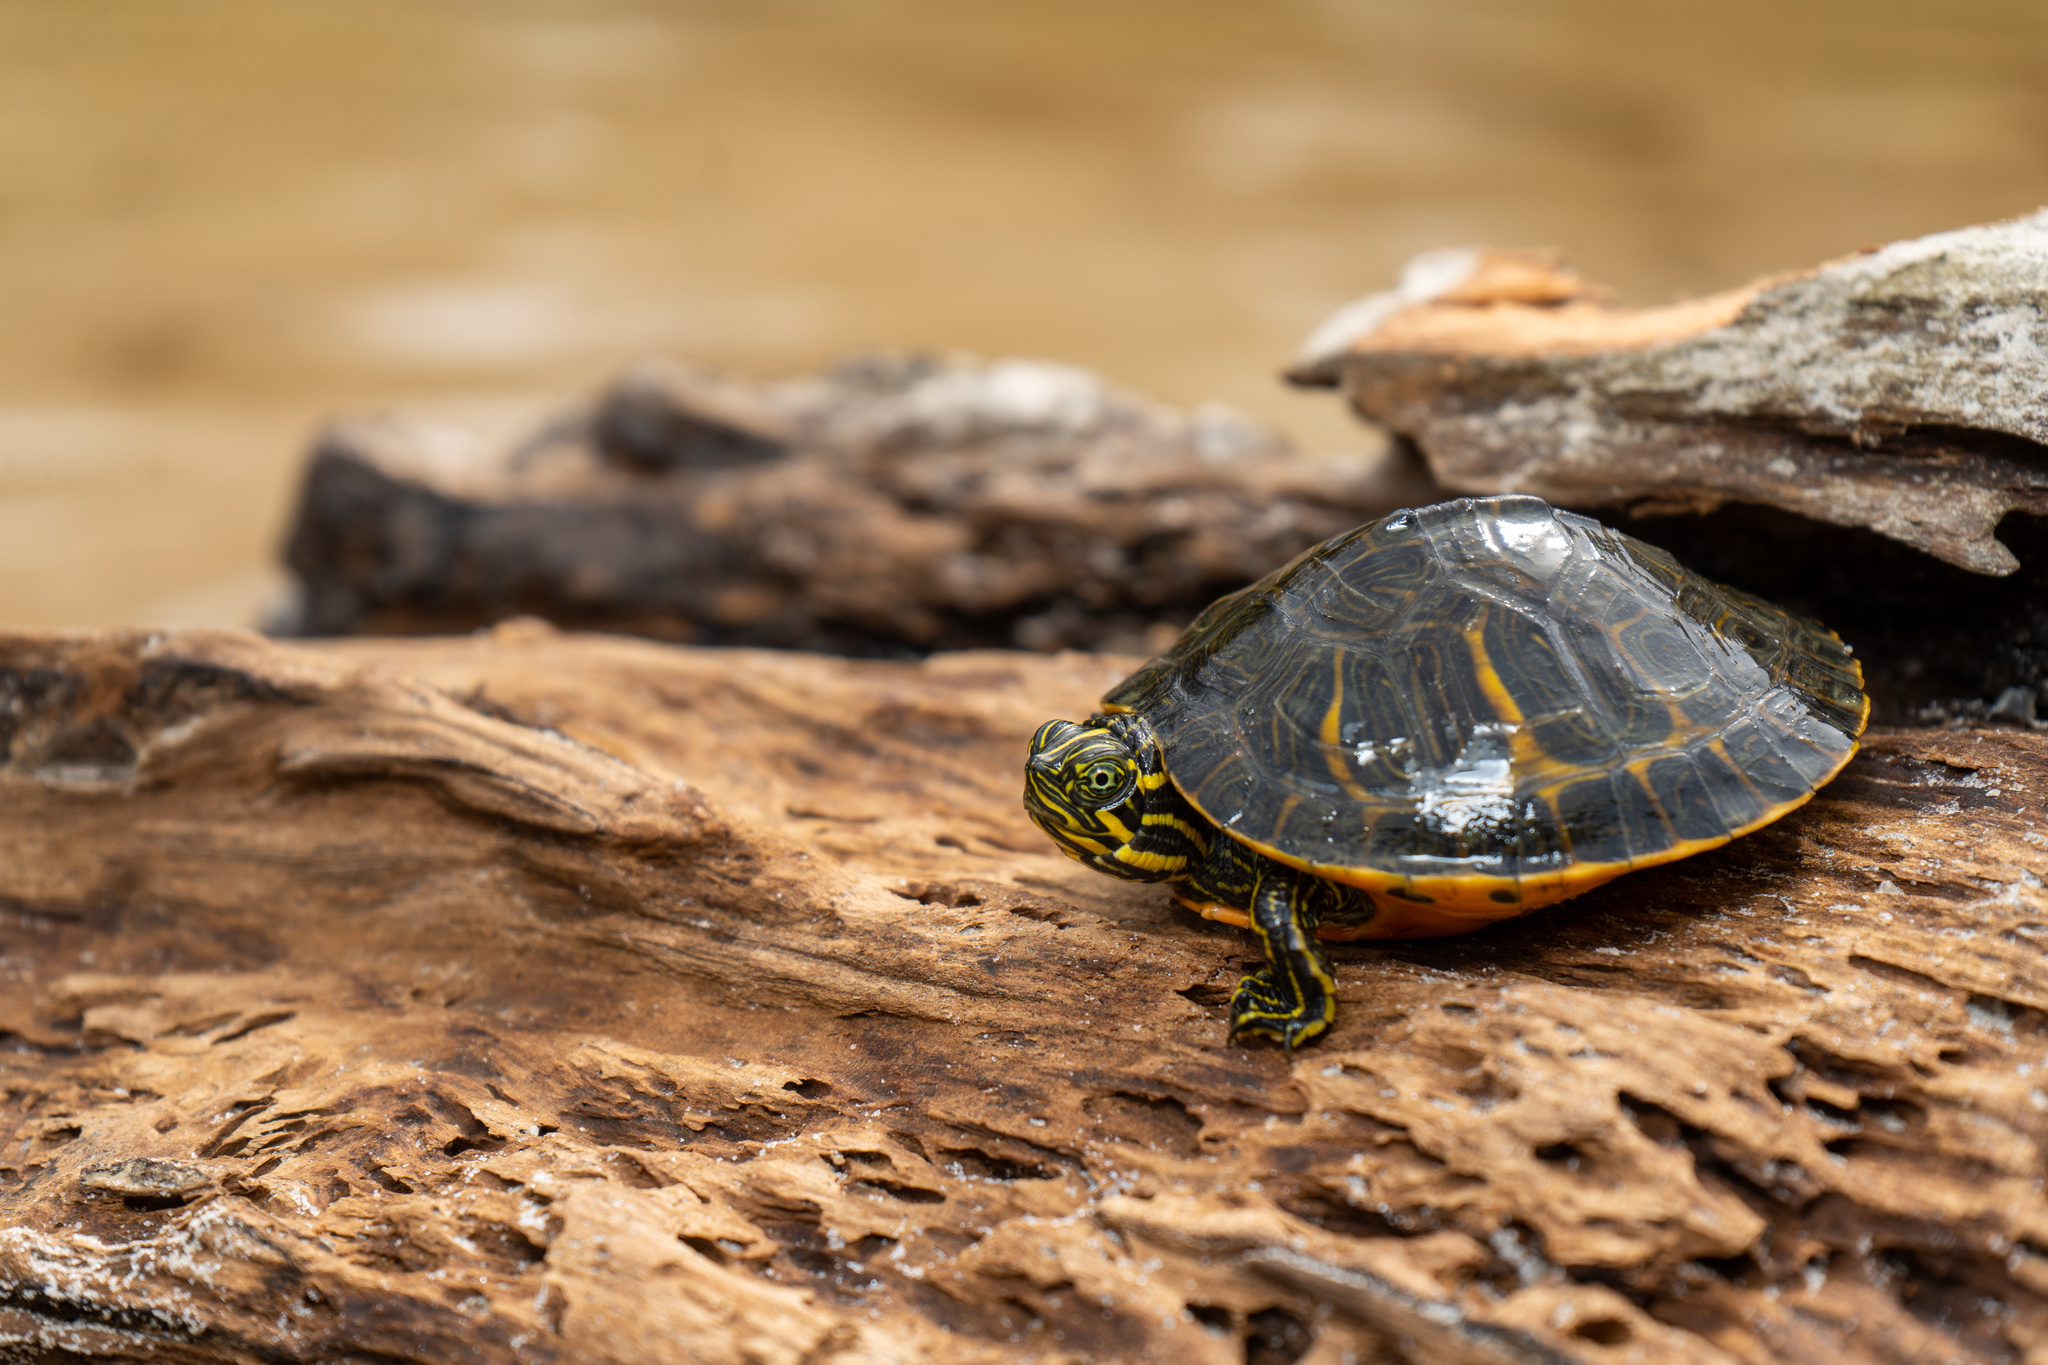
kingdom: Animalia
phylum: Chordata
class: Testudines
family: Emydidae
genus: Pseudemys
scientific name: Pseudemys concinna
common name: Eastern river cooter
